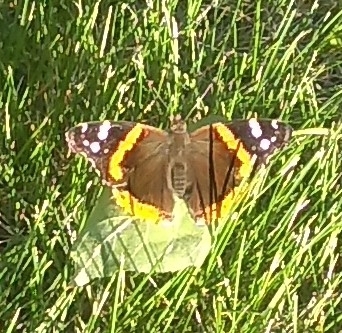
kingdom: Animalia
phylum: Arthropoda
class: Insecta
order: Lepidoptera
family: Nymphalidae
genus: Vanessa
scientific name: Vanessa atalanta
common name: Red admiral
